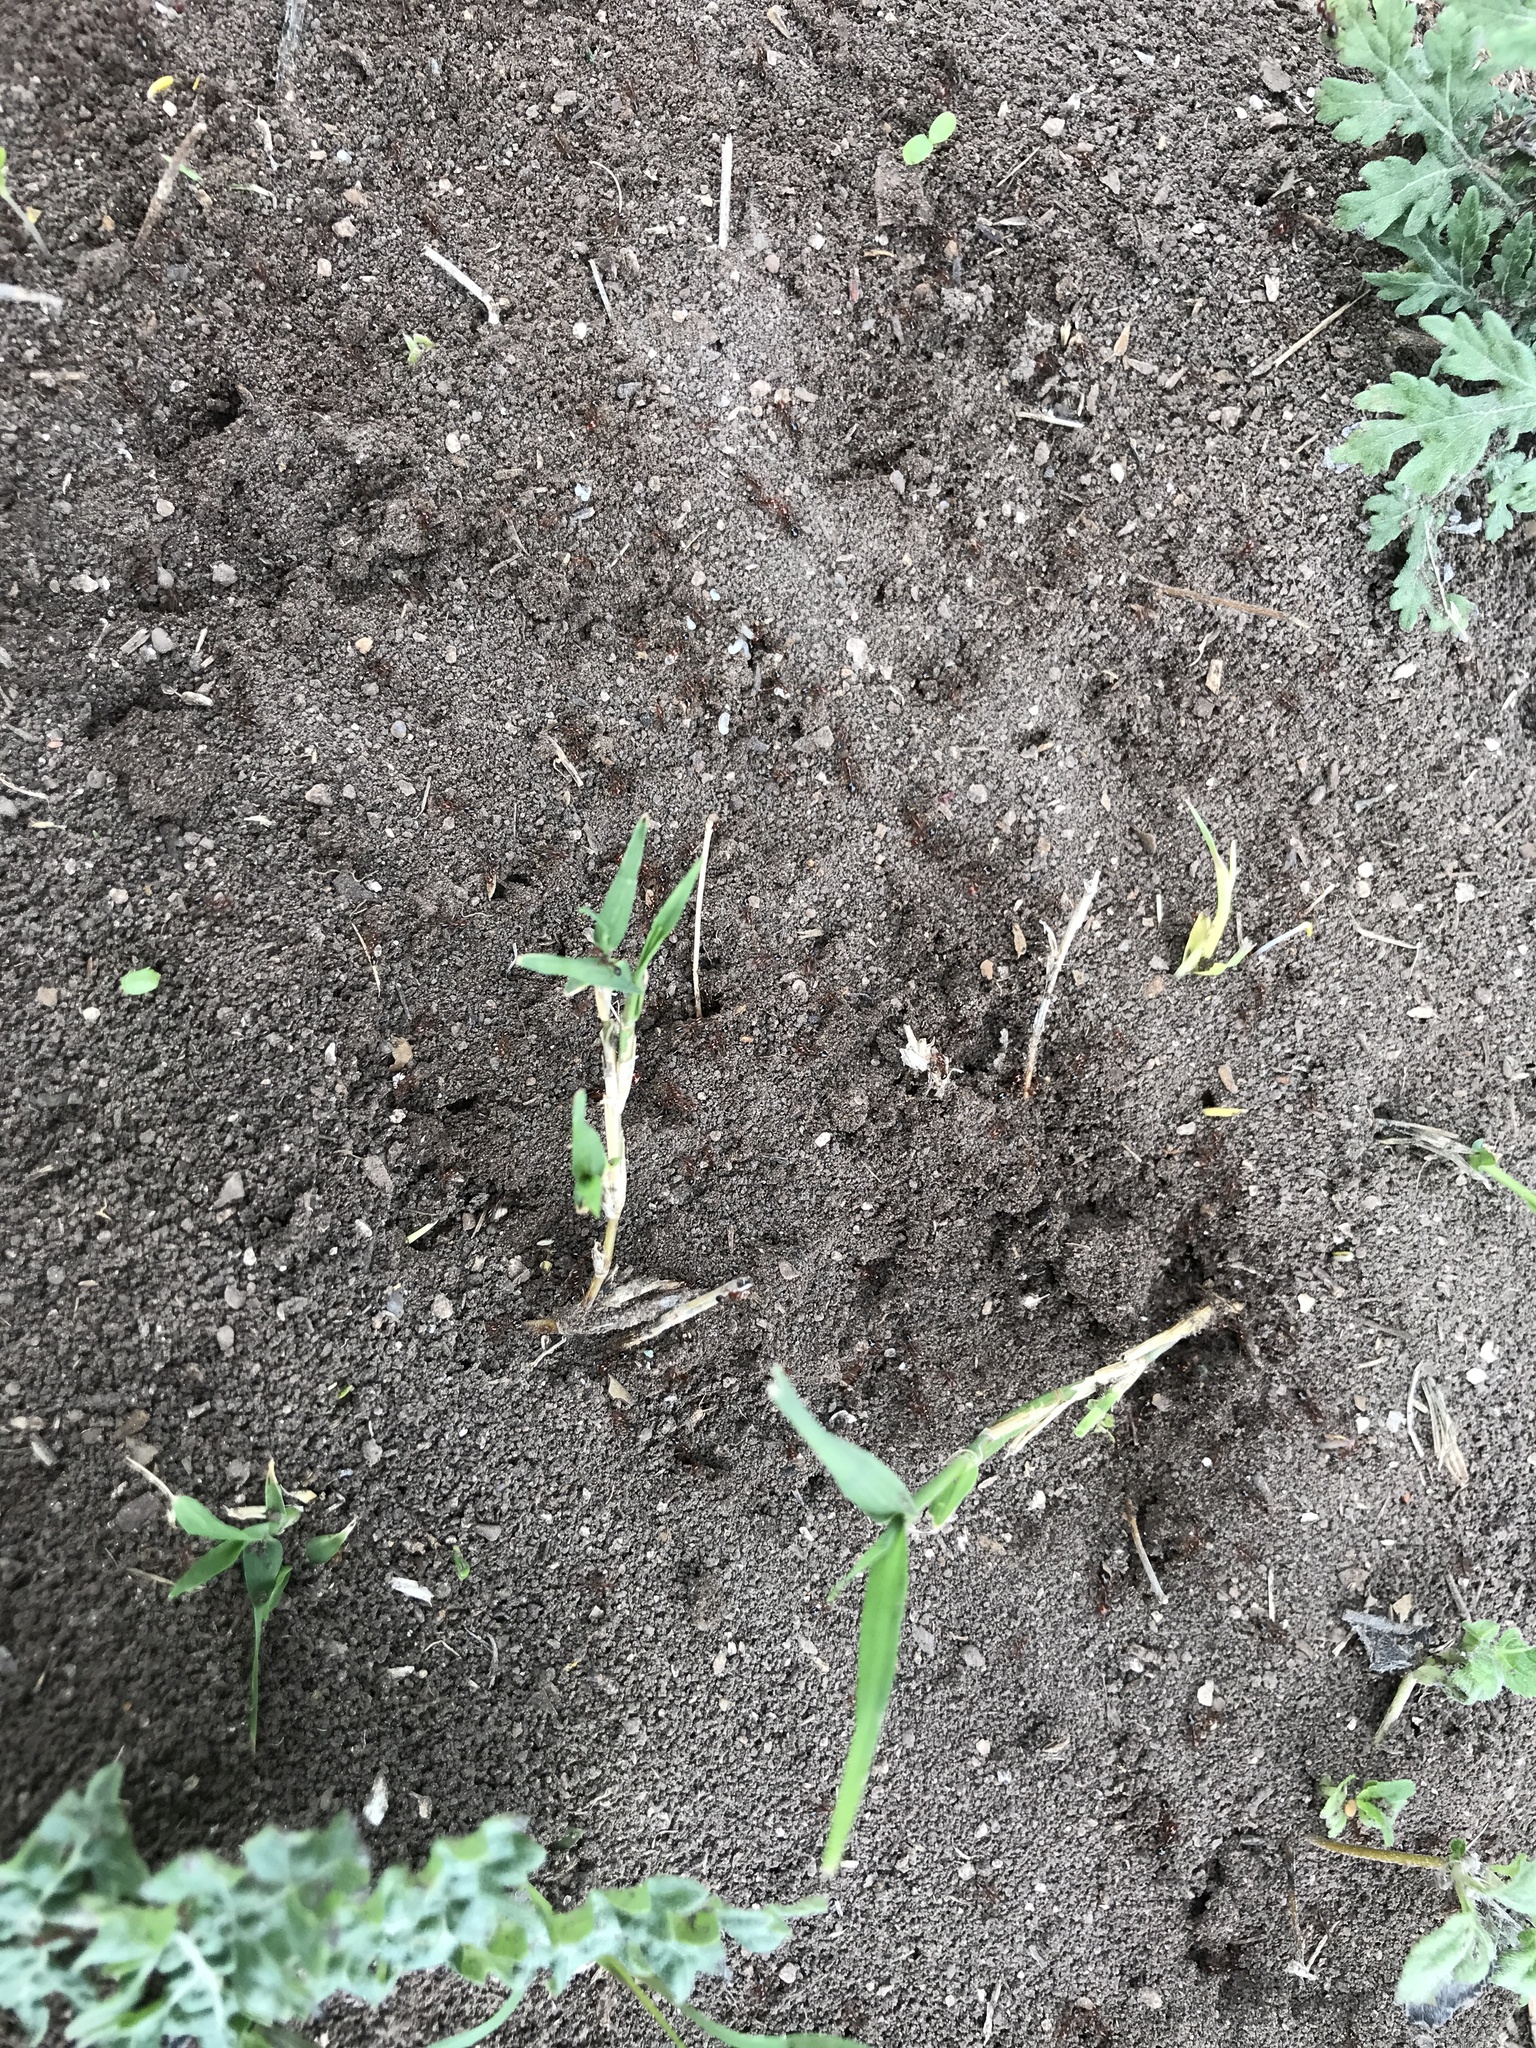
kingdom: Animalia
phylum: Arthropoda
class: Insecta
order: Hymenoptera
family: Formicidae
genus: Solenopsis
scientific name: Solenopsis invicta
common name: Red imported fire ant
